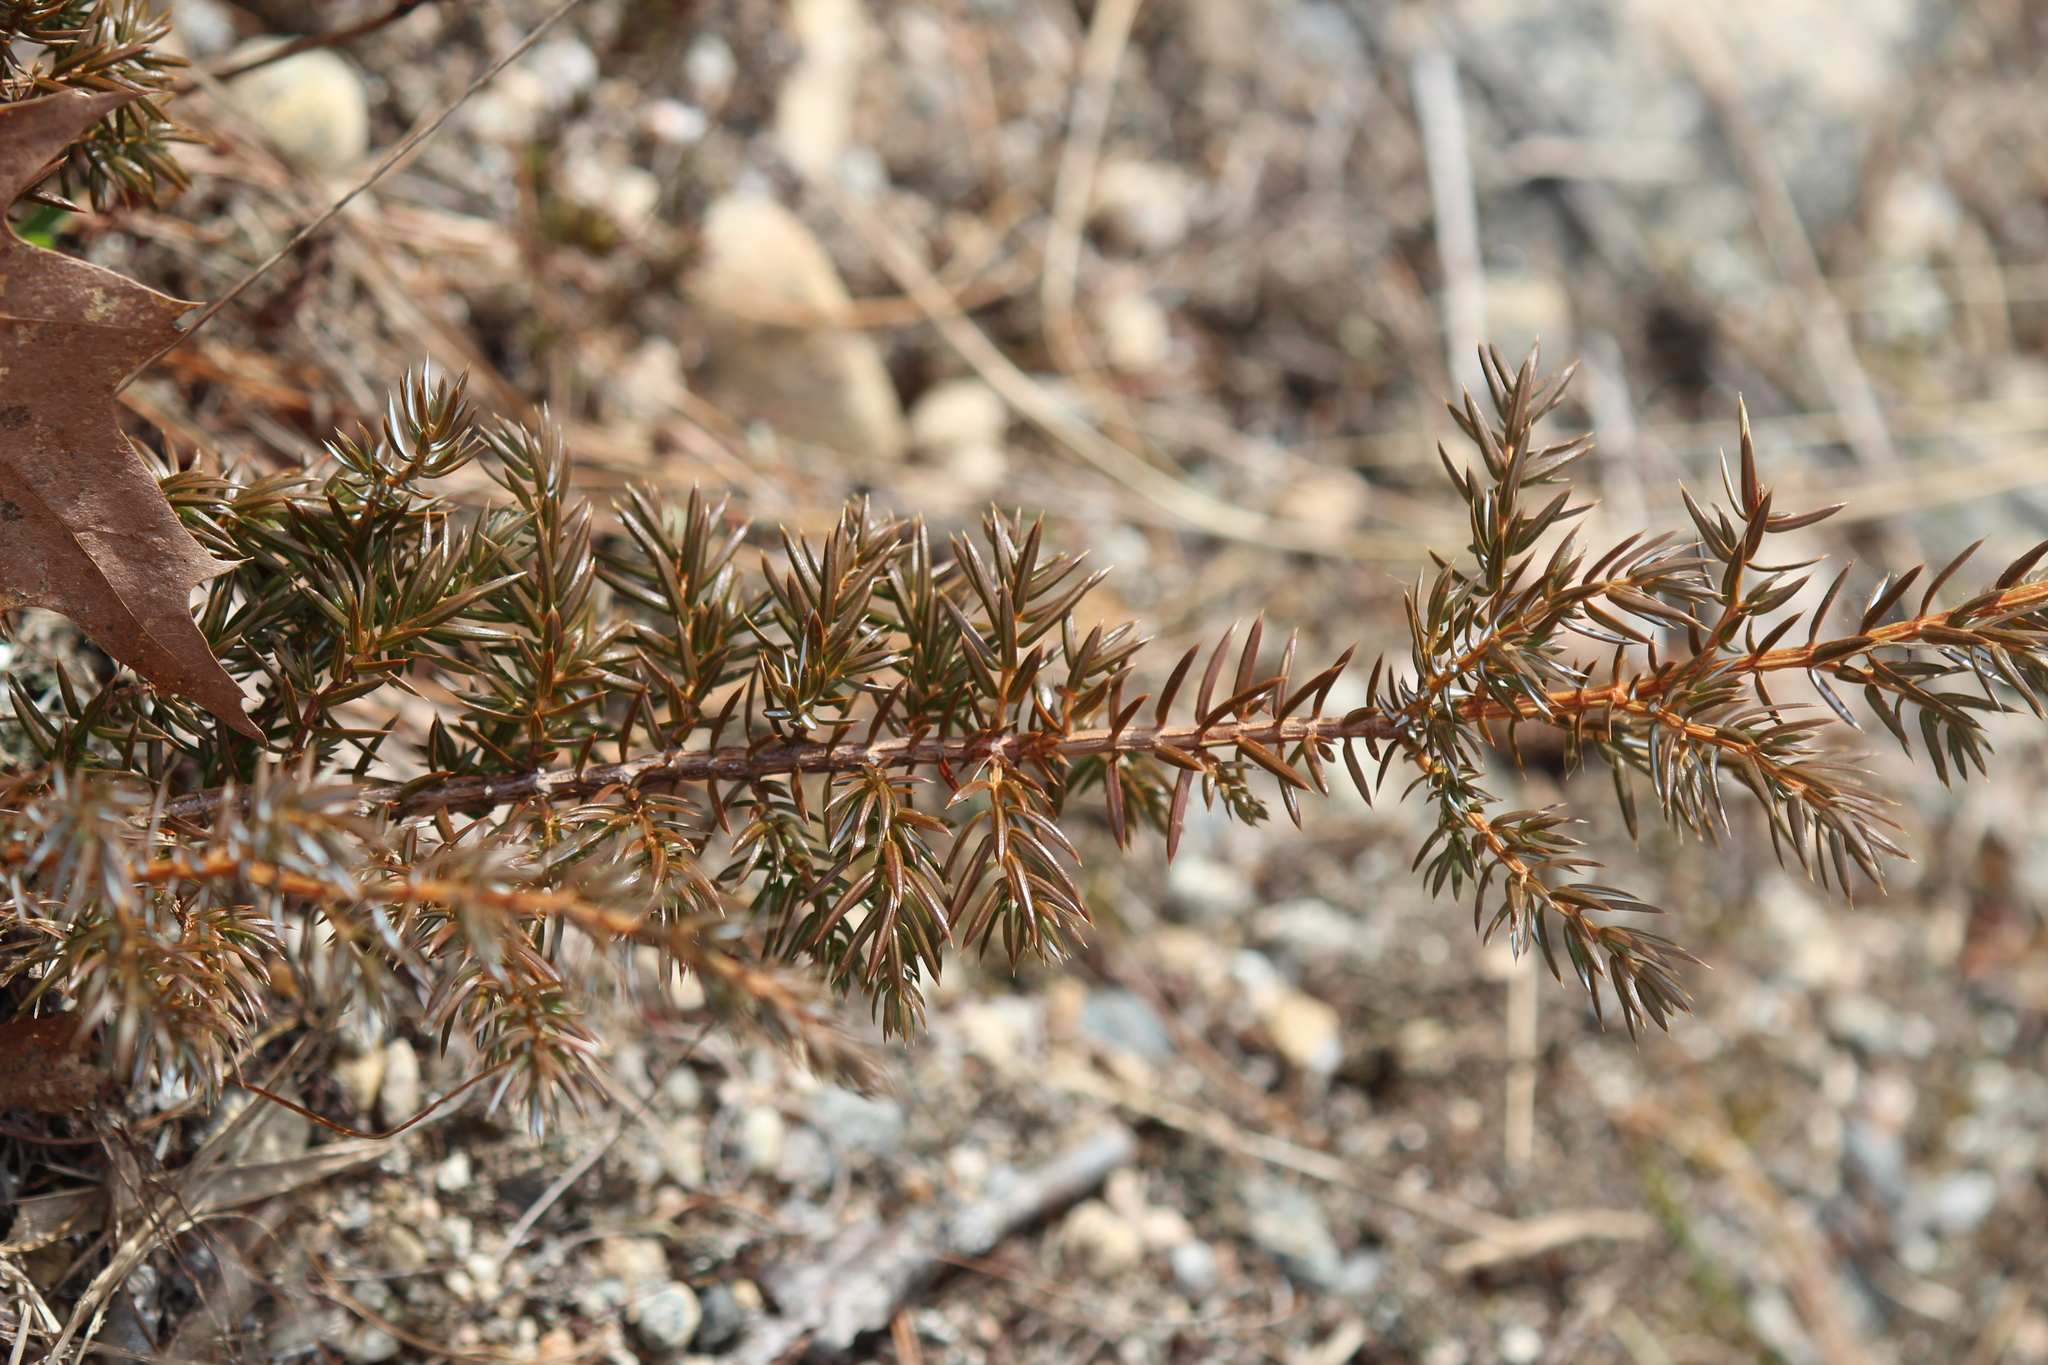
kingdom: Plantae
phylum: Tracheophyta
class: Pinopsida
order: Pinales
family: Cupressaceae
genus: Juniperus
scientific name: Juniperus communis
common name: Common juniper
